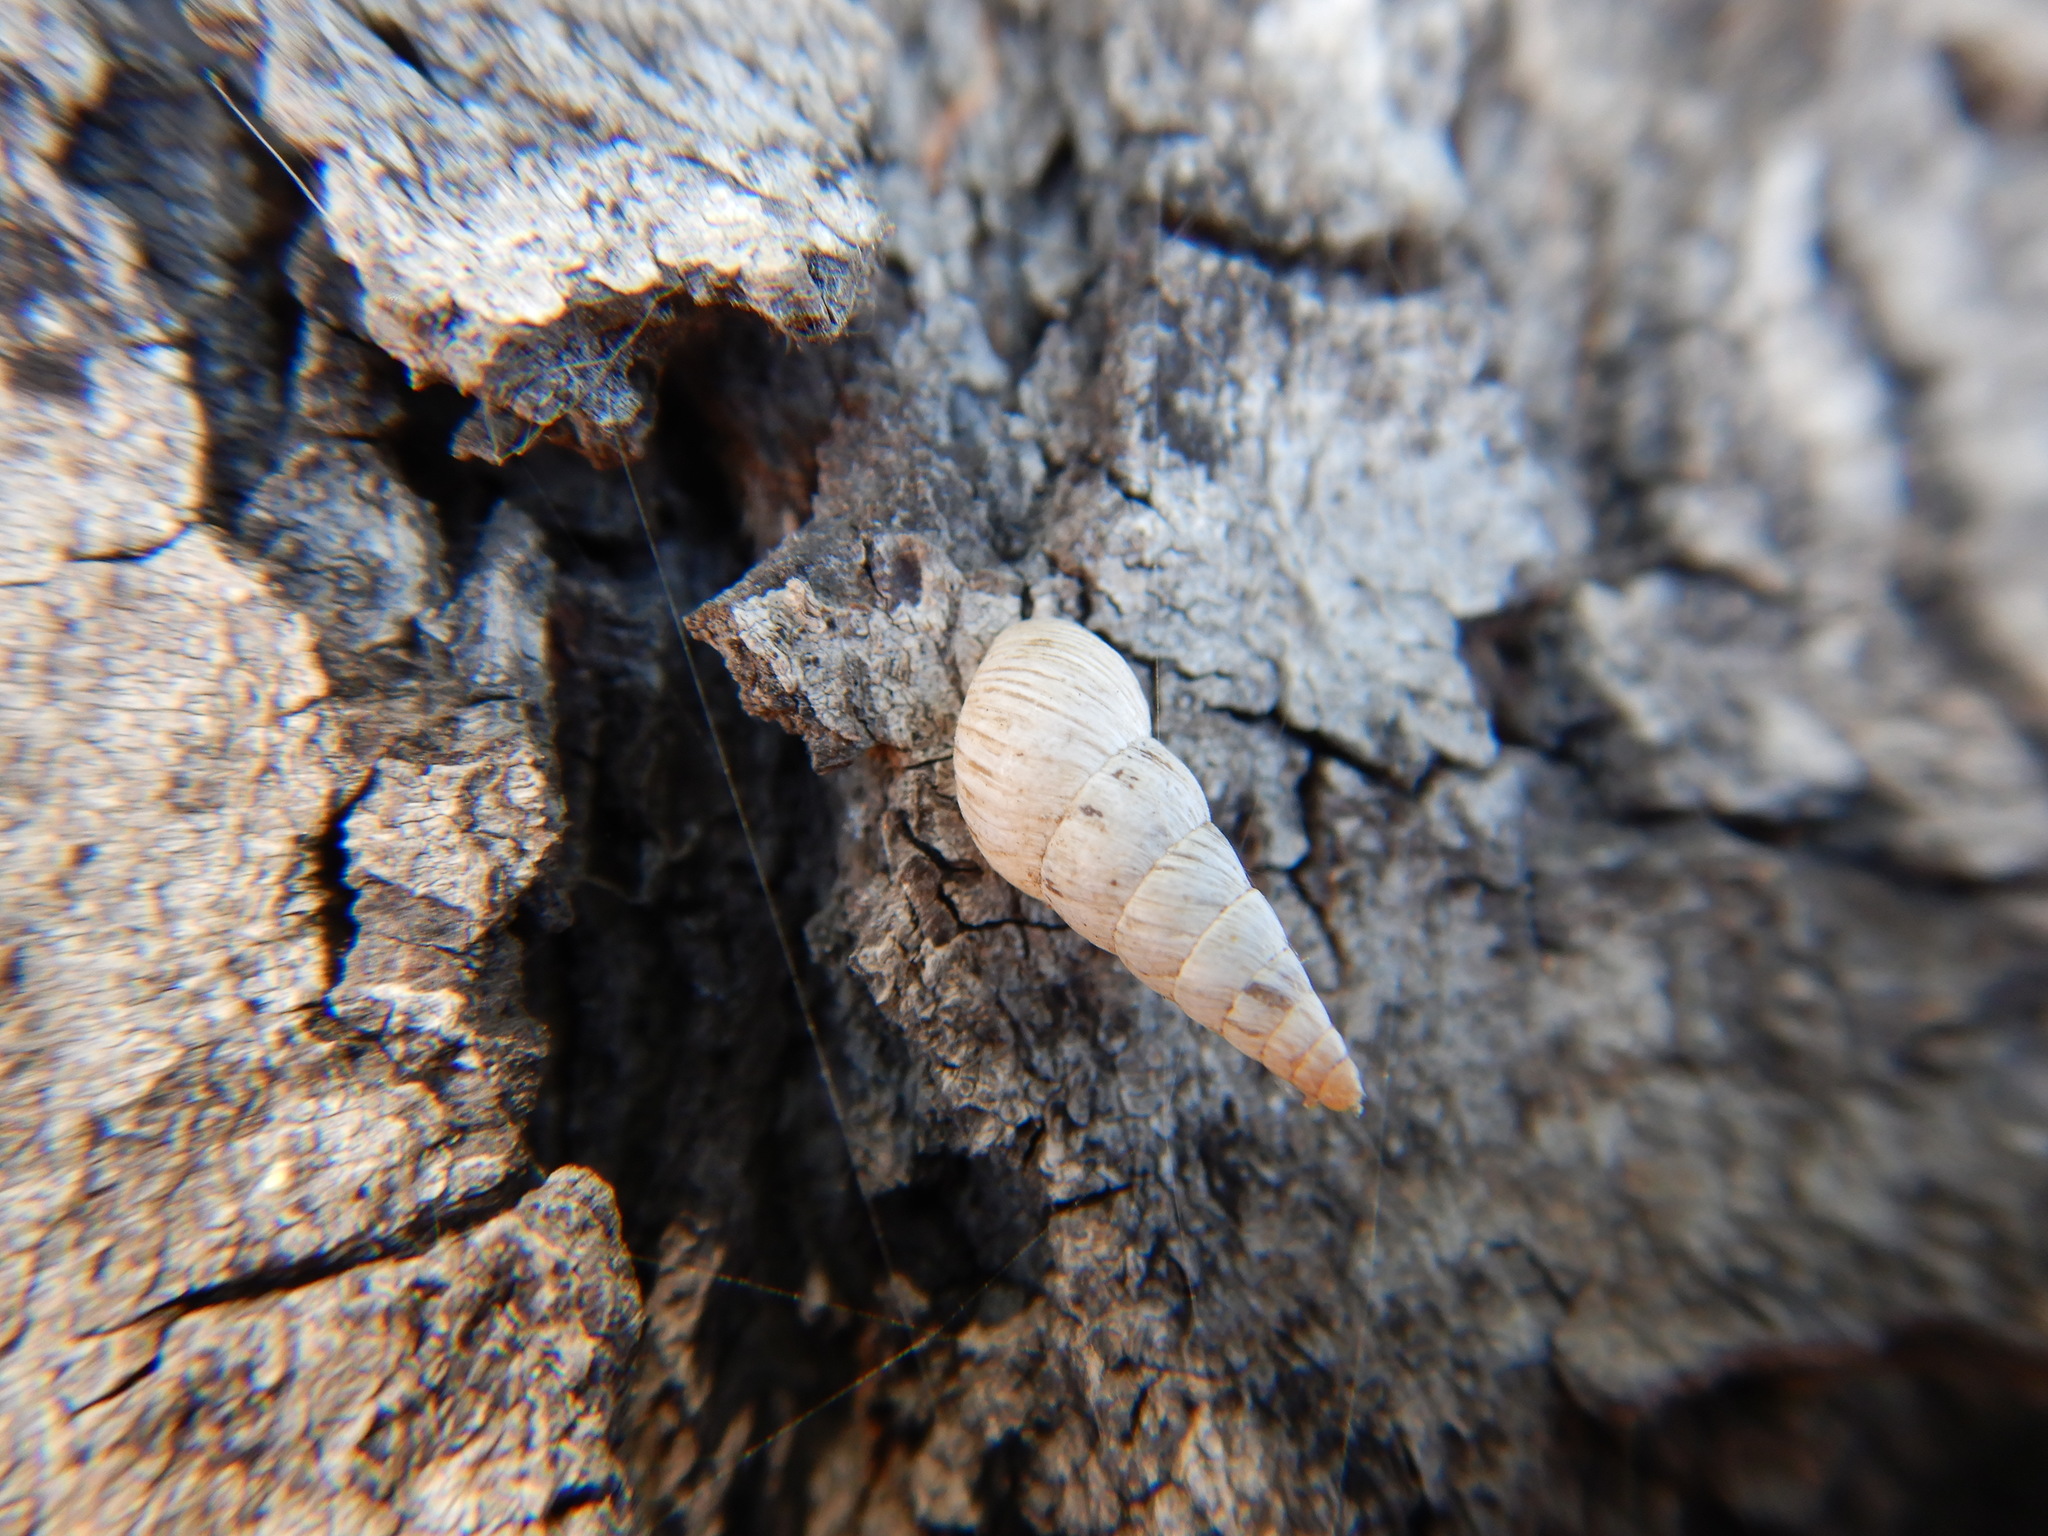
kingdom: Animalia
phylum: Mollusca
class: Gastropoda
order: Stylommatophora
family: Geomitridae
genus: Cochlicella
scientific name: Cochlicella acuta
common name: Pointed snail
